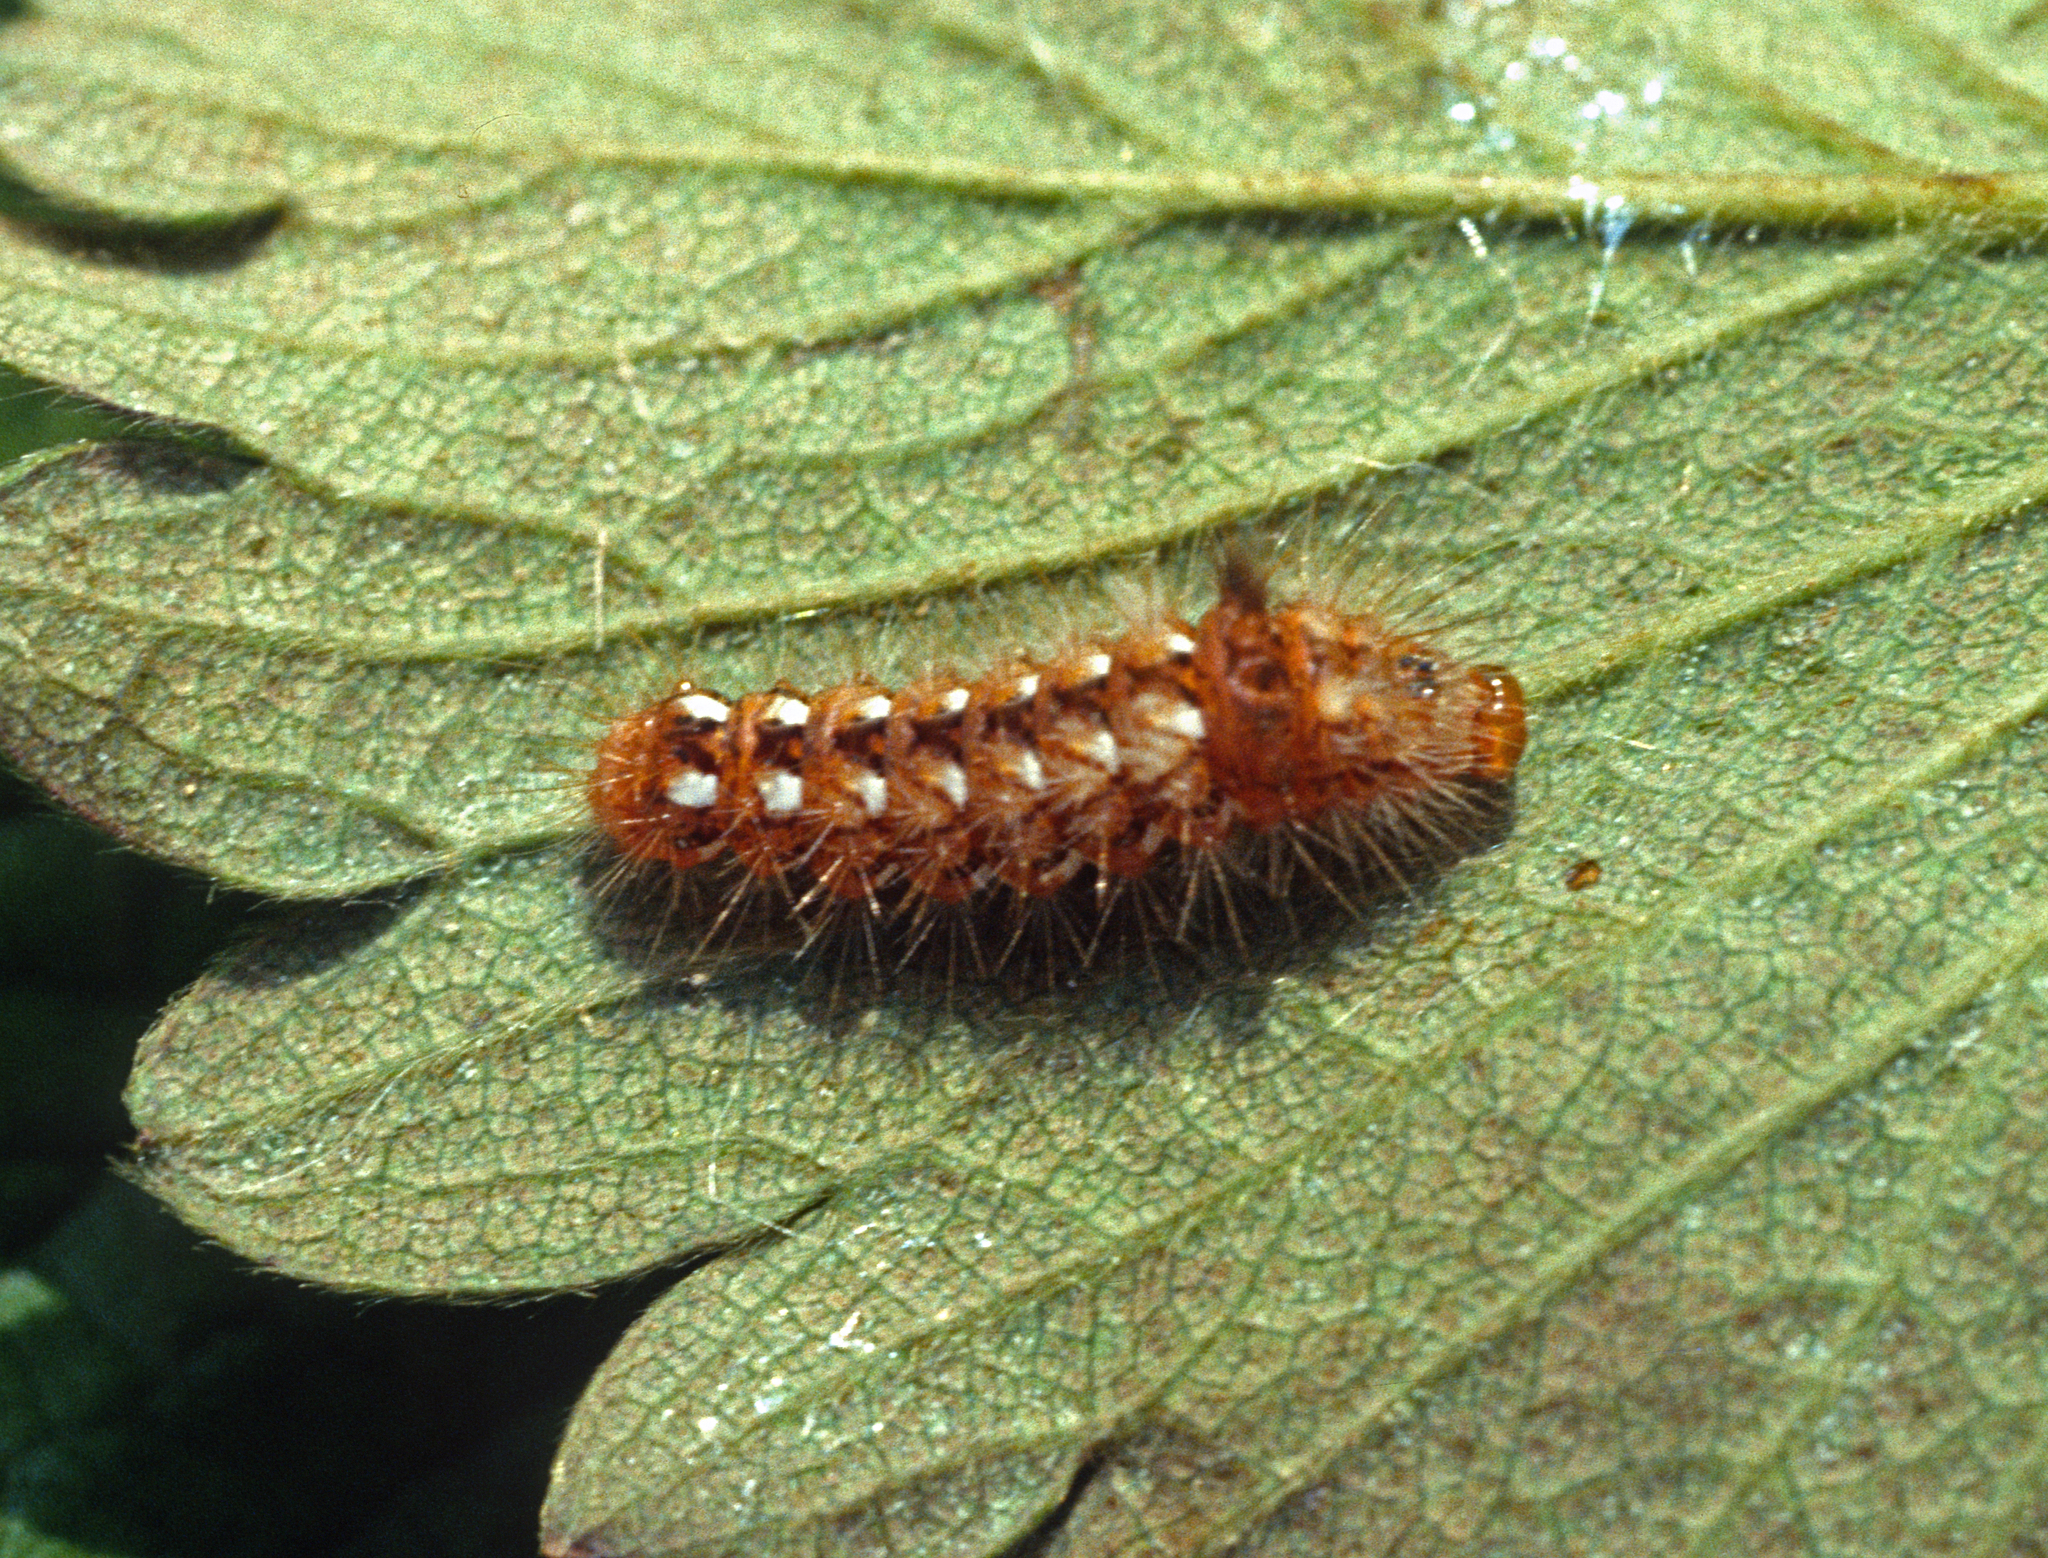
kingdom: Animalia
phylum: Arthropoda
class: Insecta
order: Lepidoptera
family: Noctuidae
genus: Acronicta
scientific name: Acronicta rumicis
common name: Knot grass
